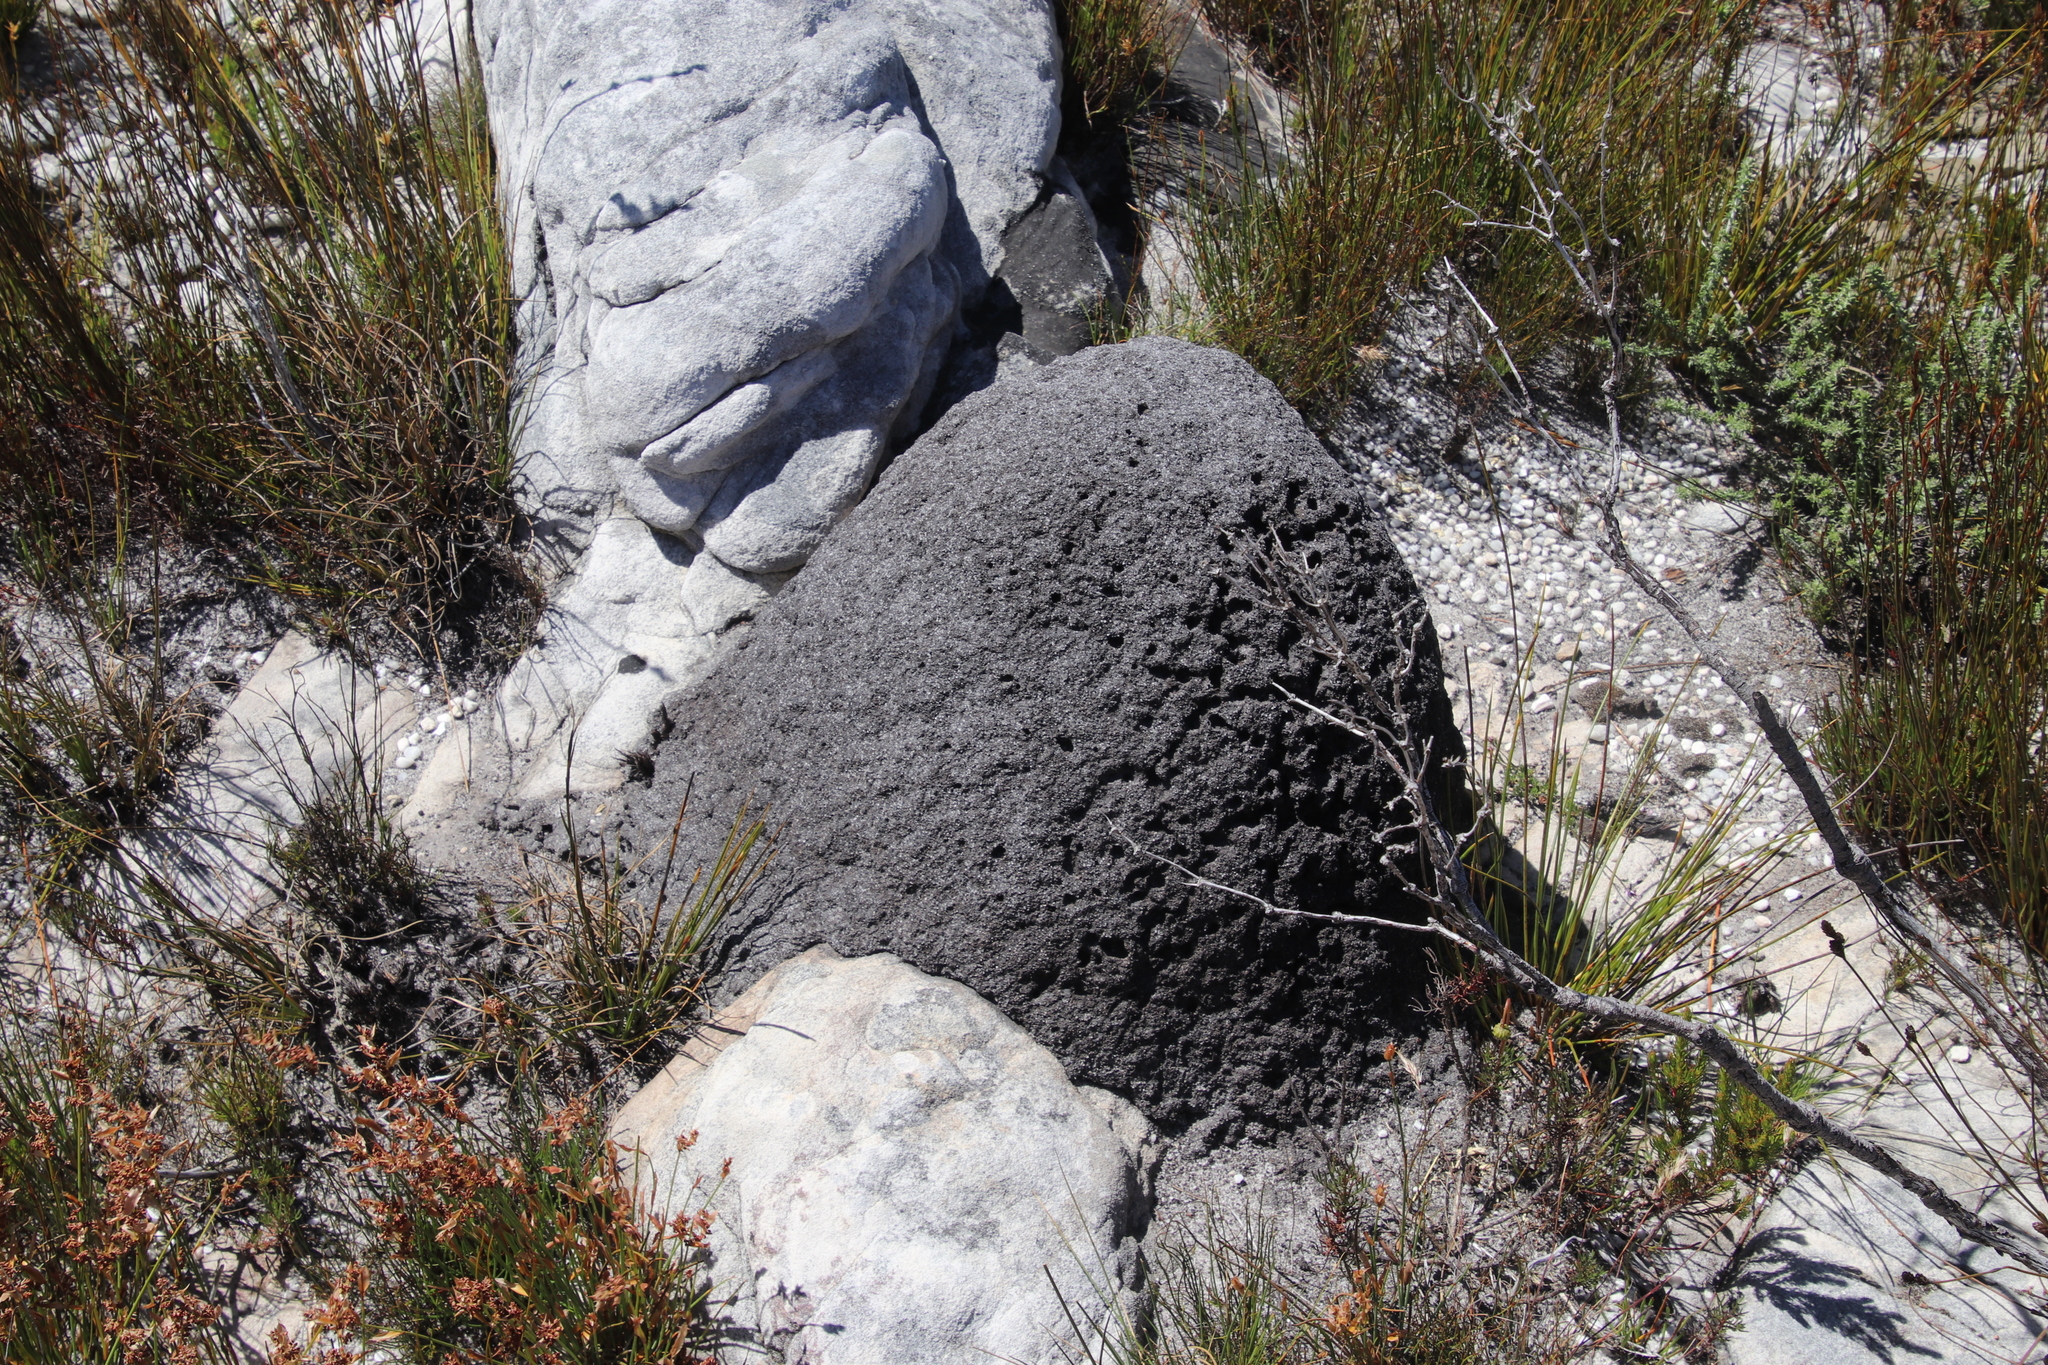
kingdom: Animalia
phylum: Arthropoda
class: Insecta
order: Blattodea
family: Termitidae
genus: Amitermes
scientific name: Amitermes hastatus
